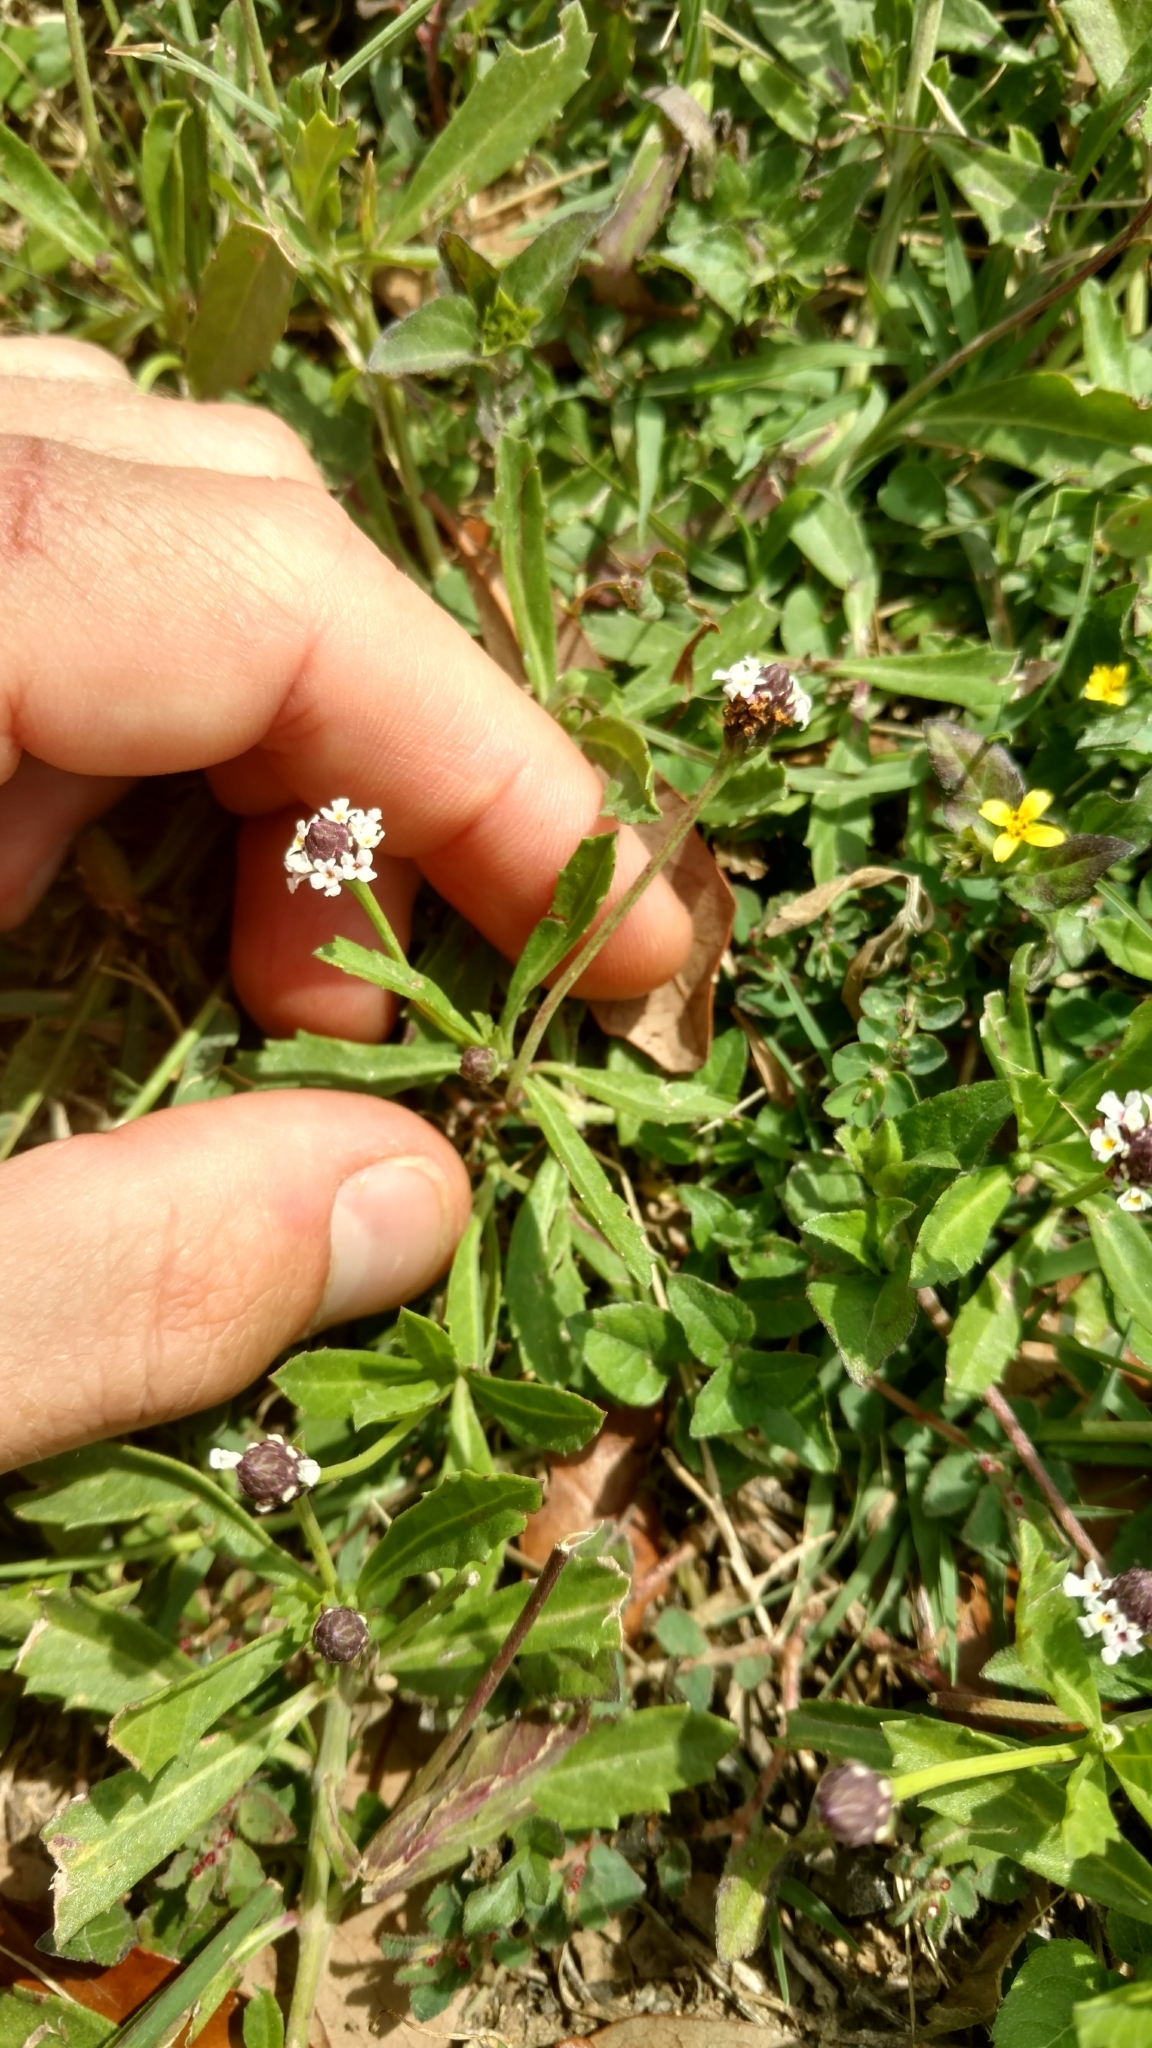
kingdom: Plantae
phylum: Tracheophyta
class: Magnoliopsida
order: Lamiales
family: Verbenaceae
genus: Phyla
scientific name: Phyla nodiflora
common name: Frogfruit
